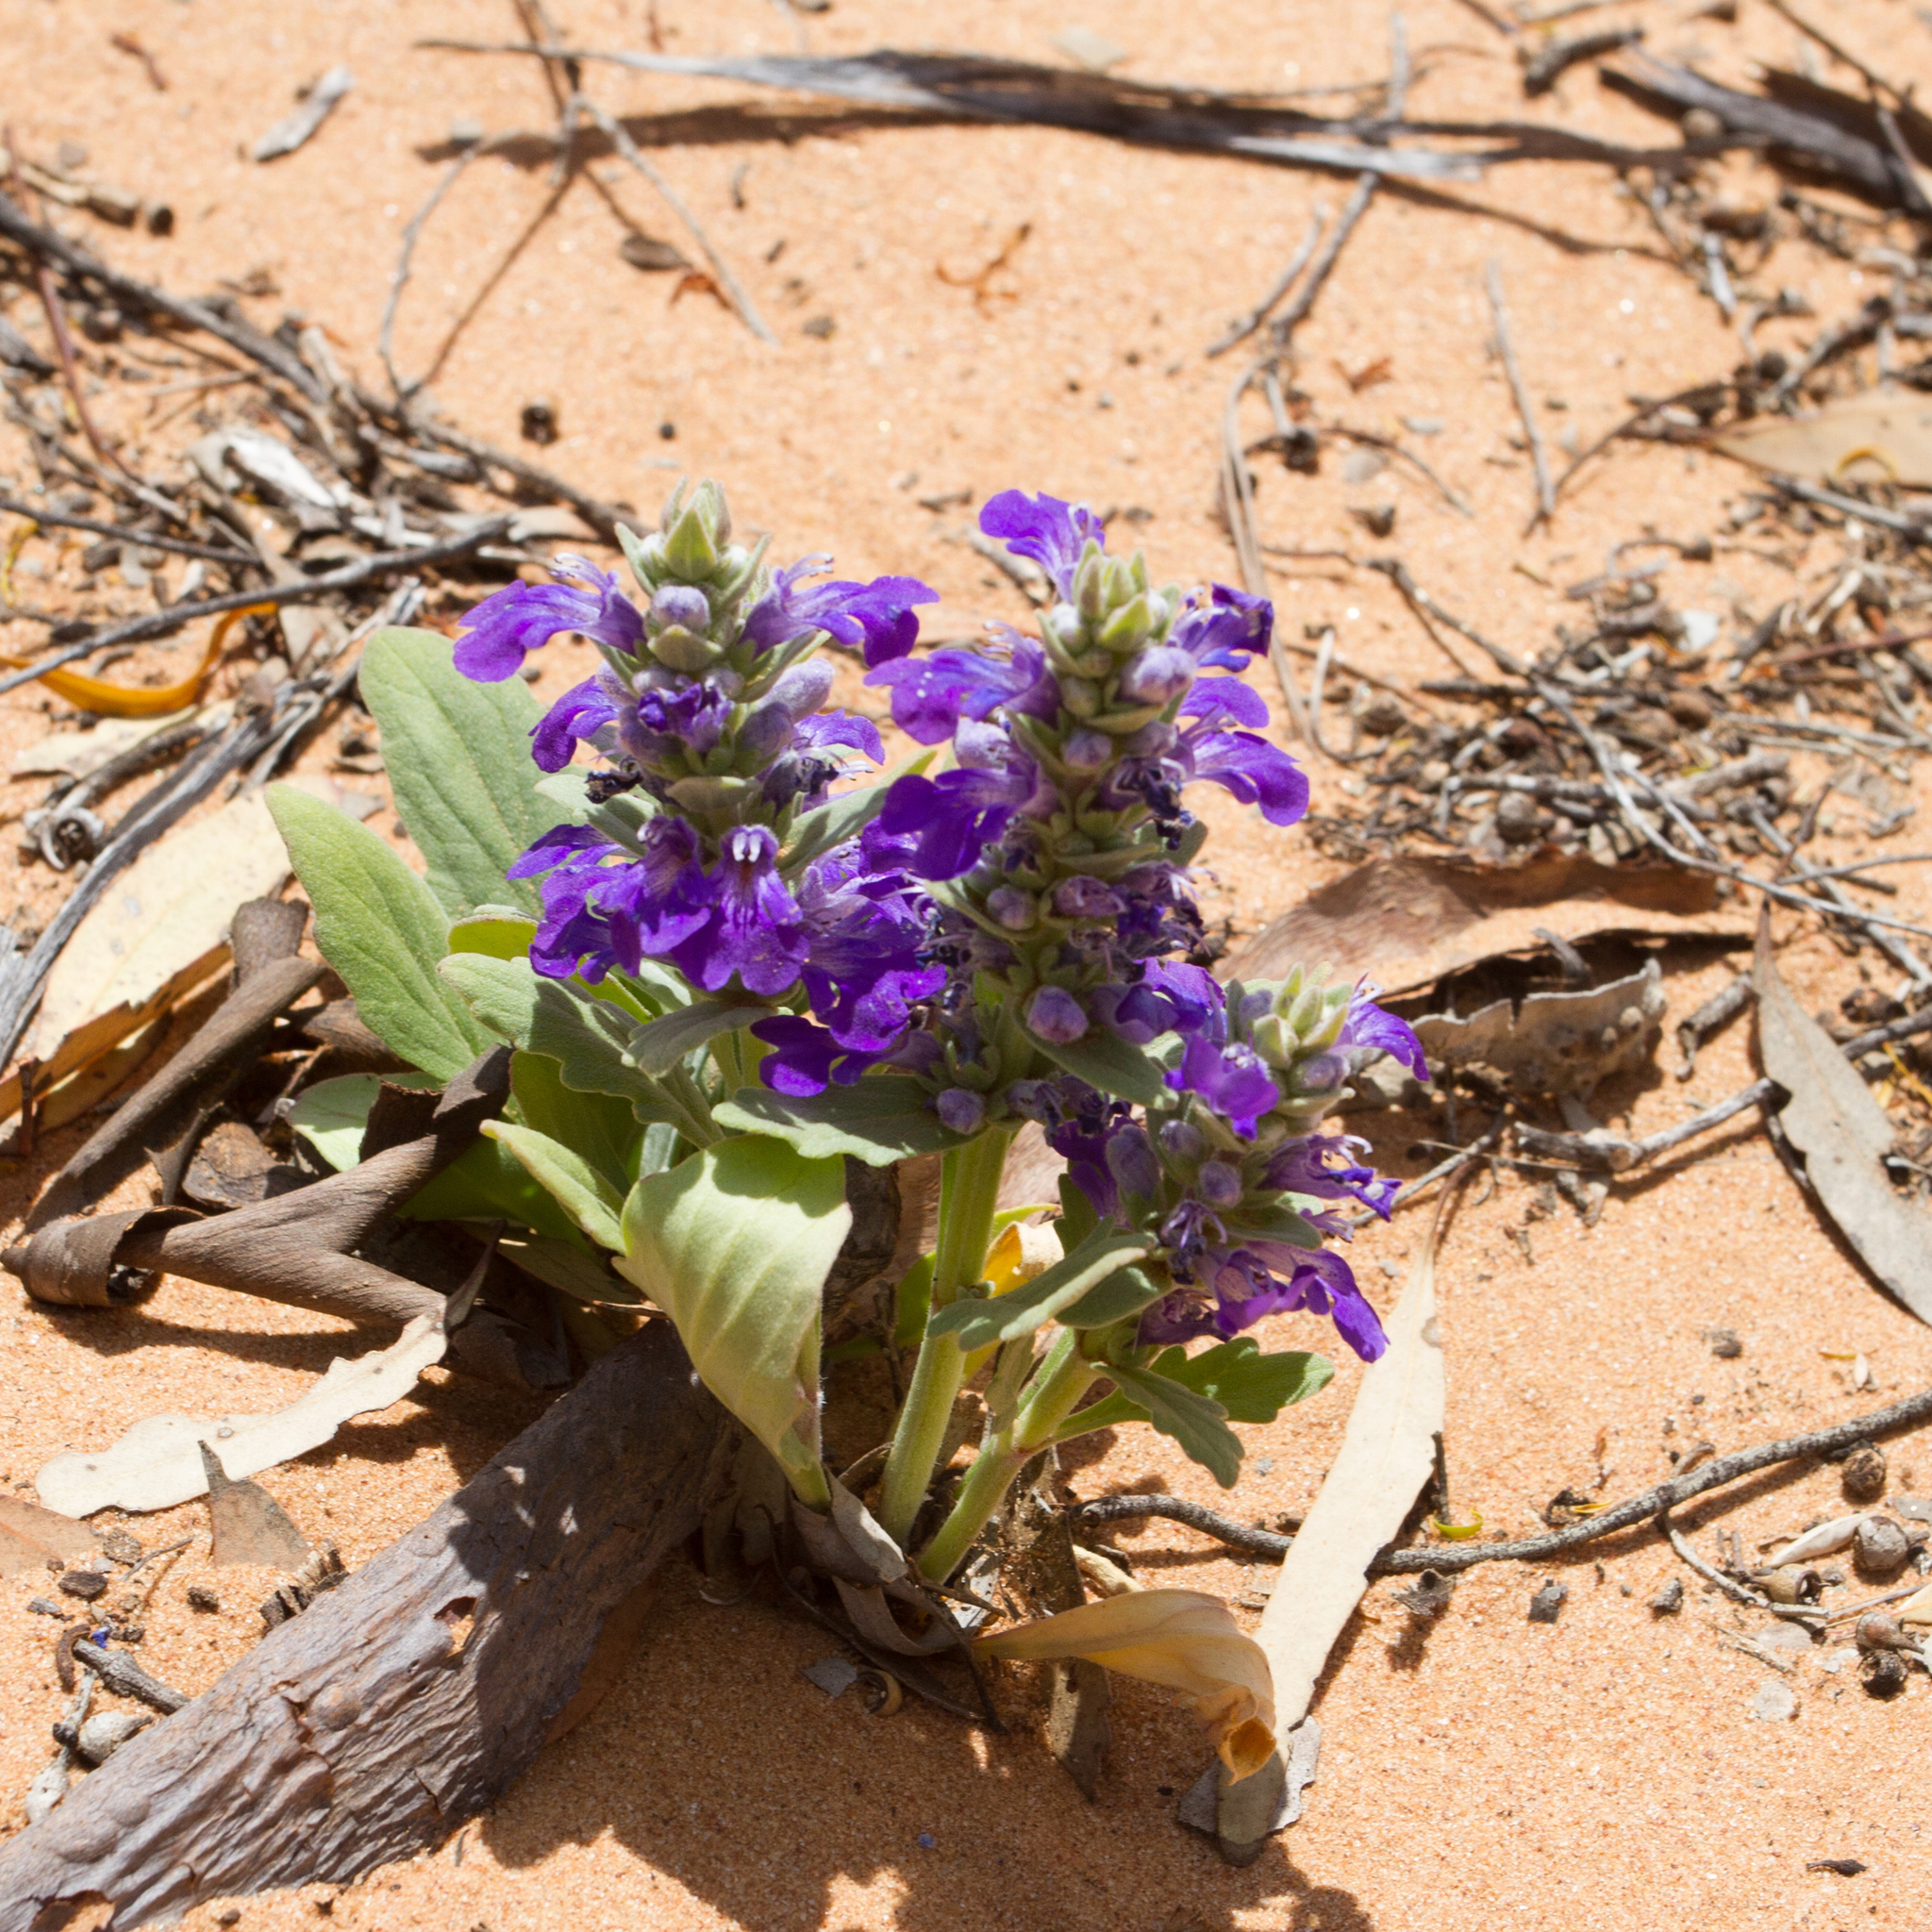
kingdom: Plantae
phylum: Tracheophyta
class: Magnoliopsida
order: Lamiales
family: Lamiaceae
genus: Ajuga
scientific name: Ajuga australis
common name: Australian bugle
